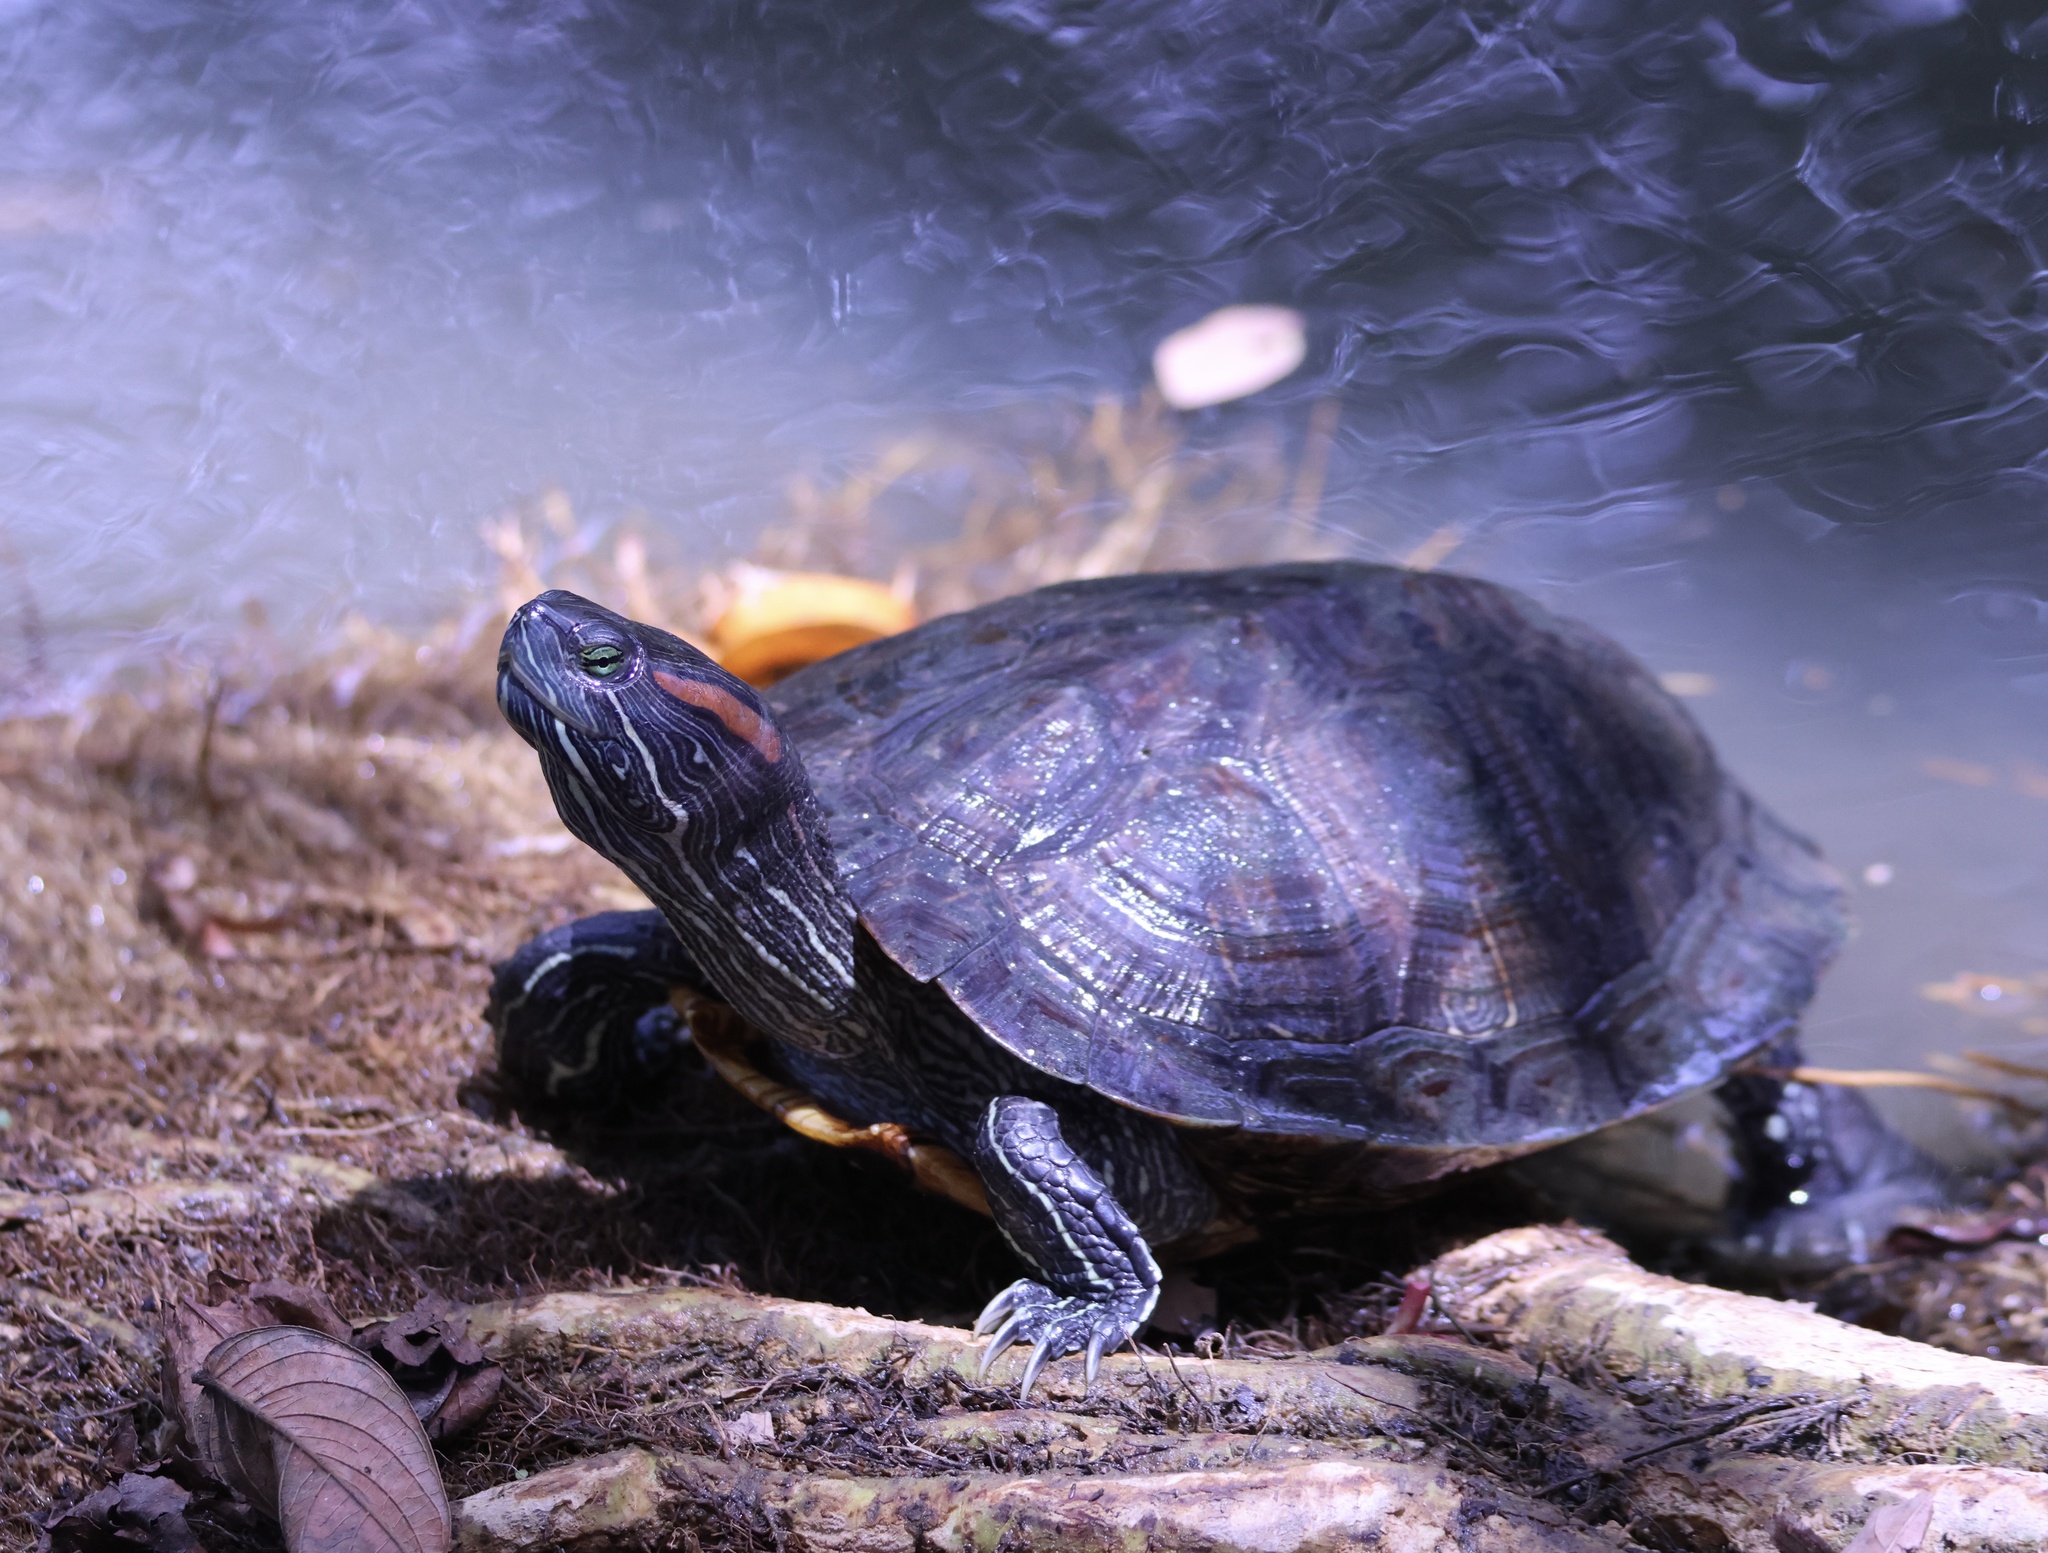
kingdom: Animalia
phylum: Chordata
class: Testudines
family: Emydidae
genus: Trachemys
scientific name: Trachemys scripta
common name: Slider
